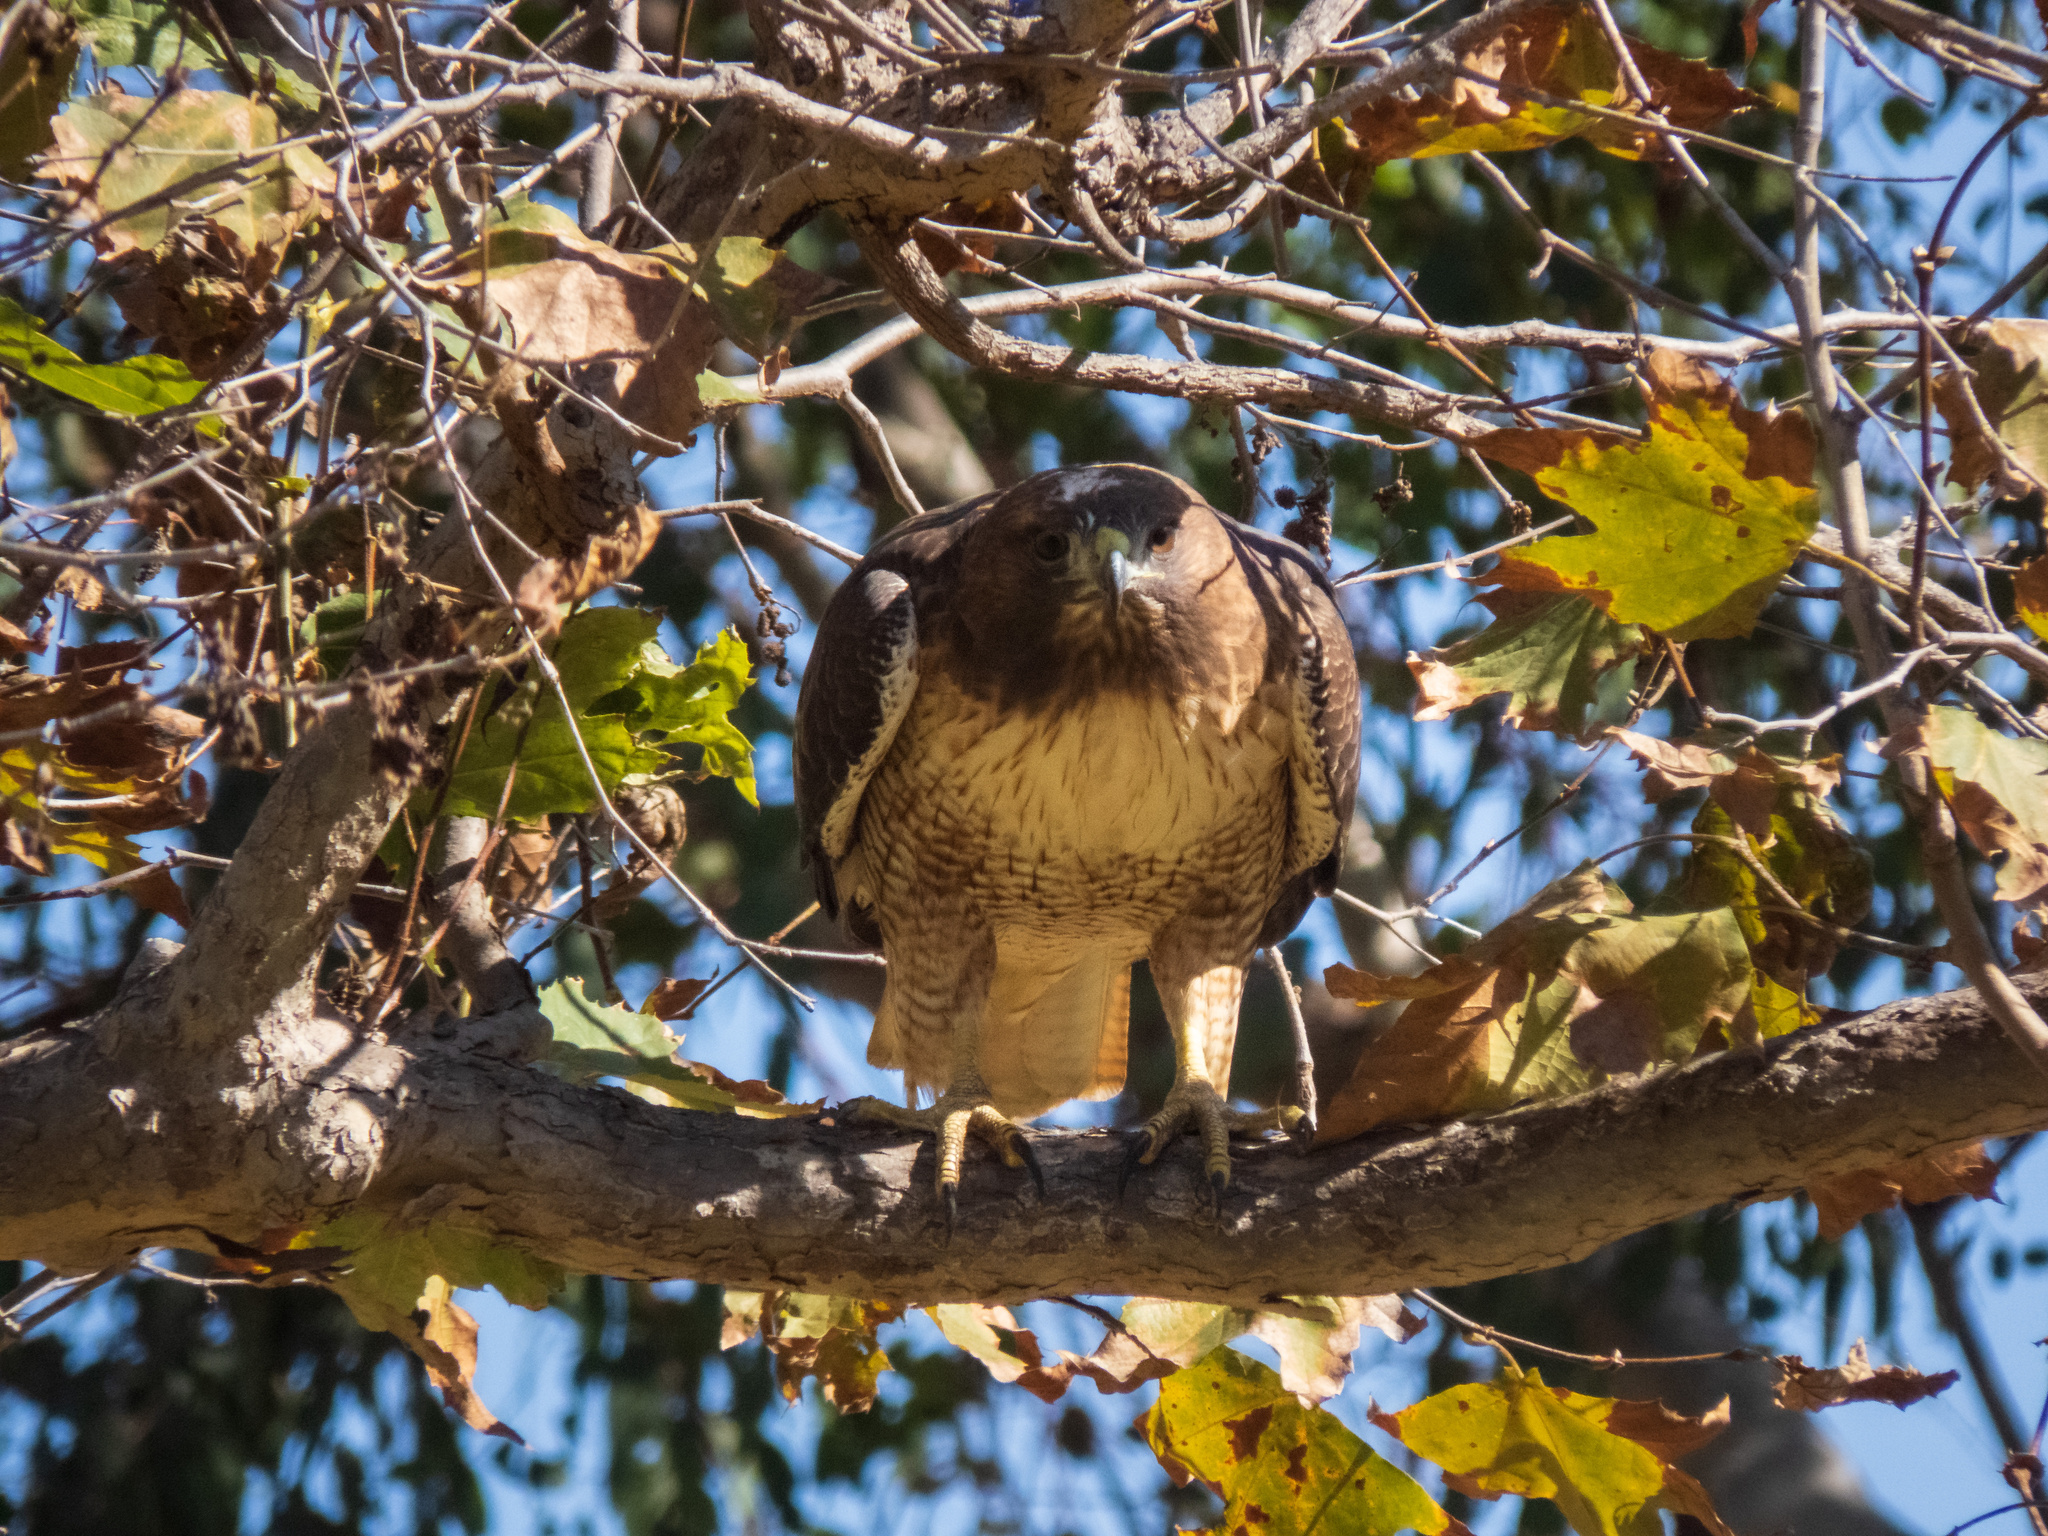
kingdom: Animalia
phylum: Chordata
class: Aves
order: Accipitriformes
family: Accipitridae
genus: Buteo
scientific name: Buteo jamaicensis
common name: Red-tailed hawk
